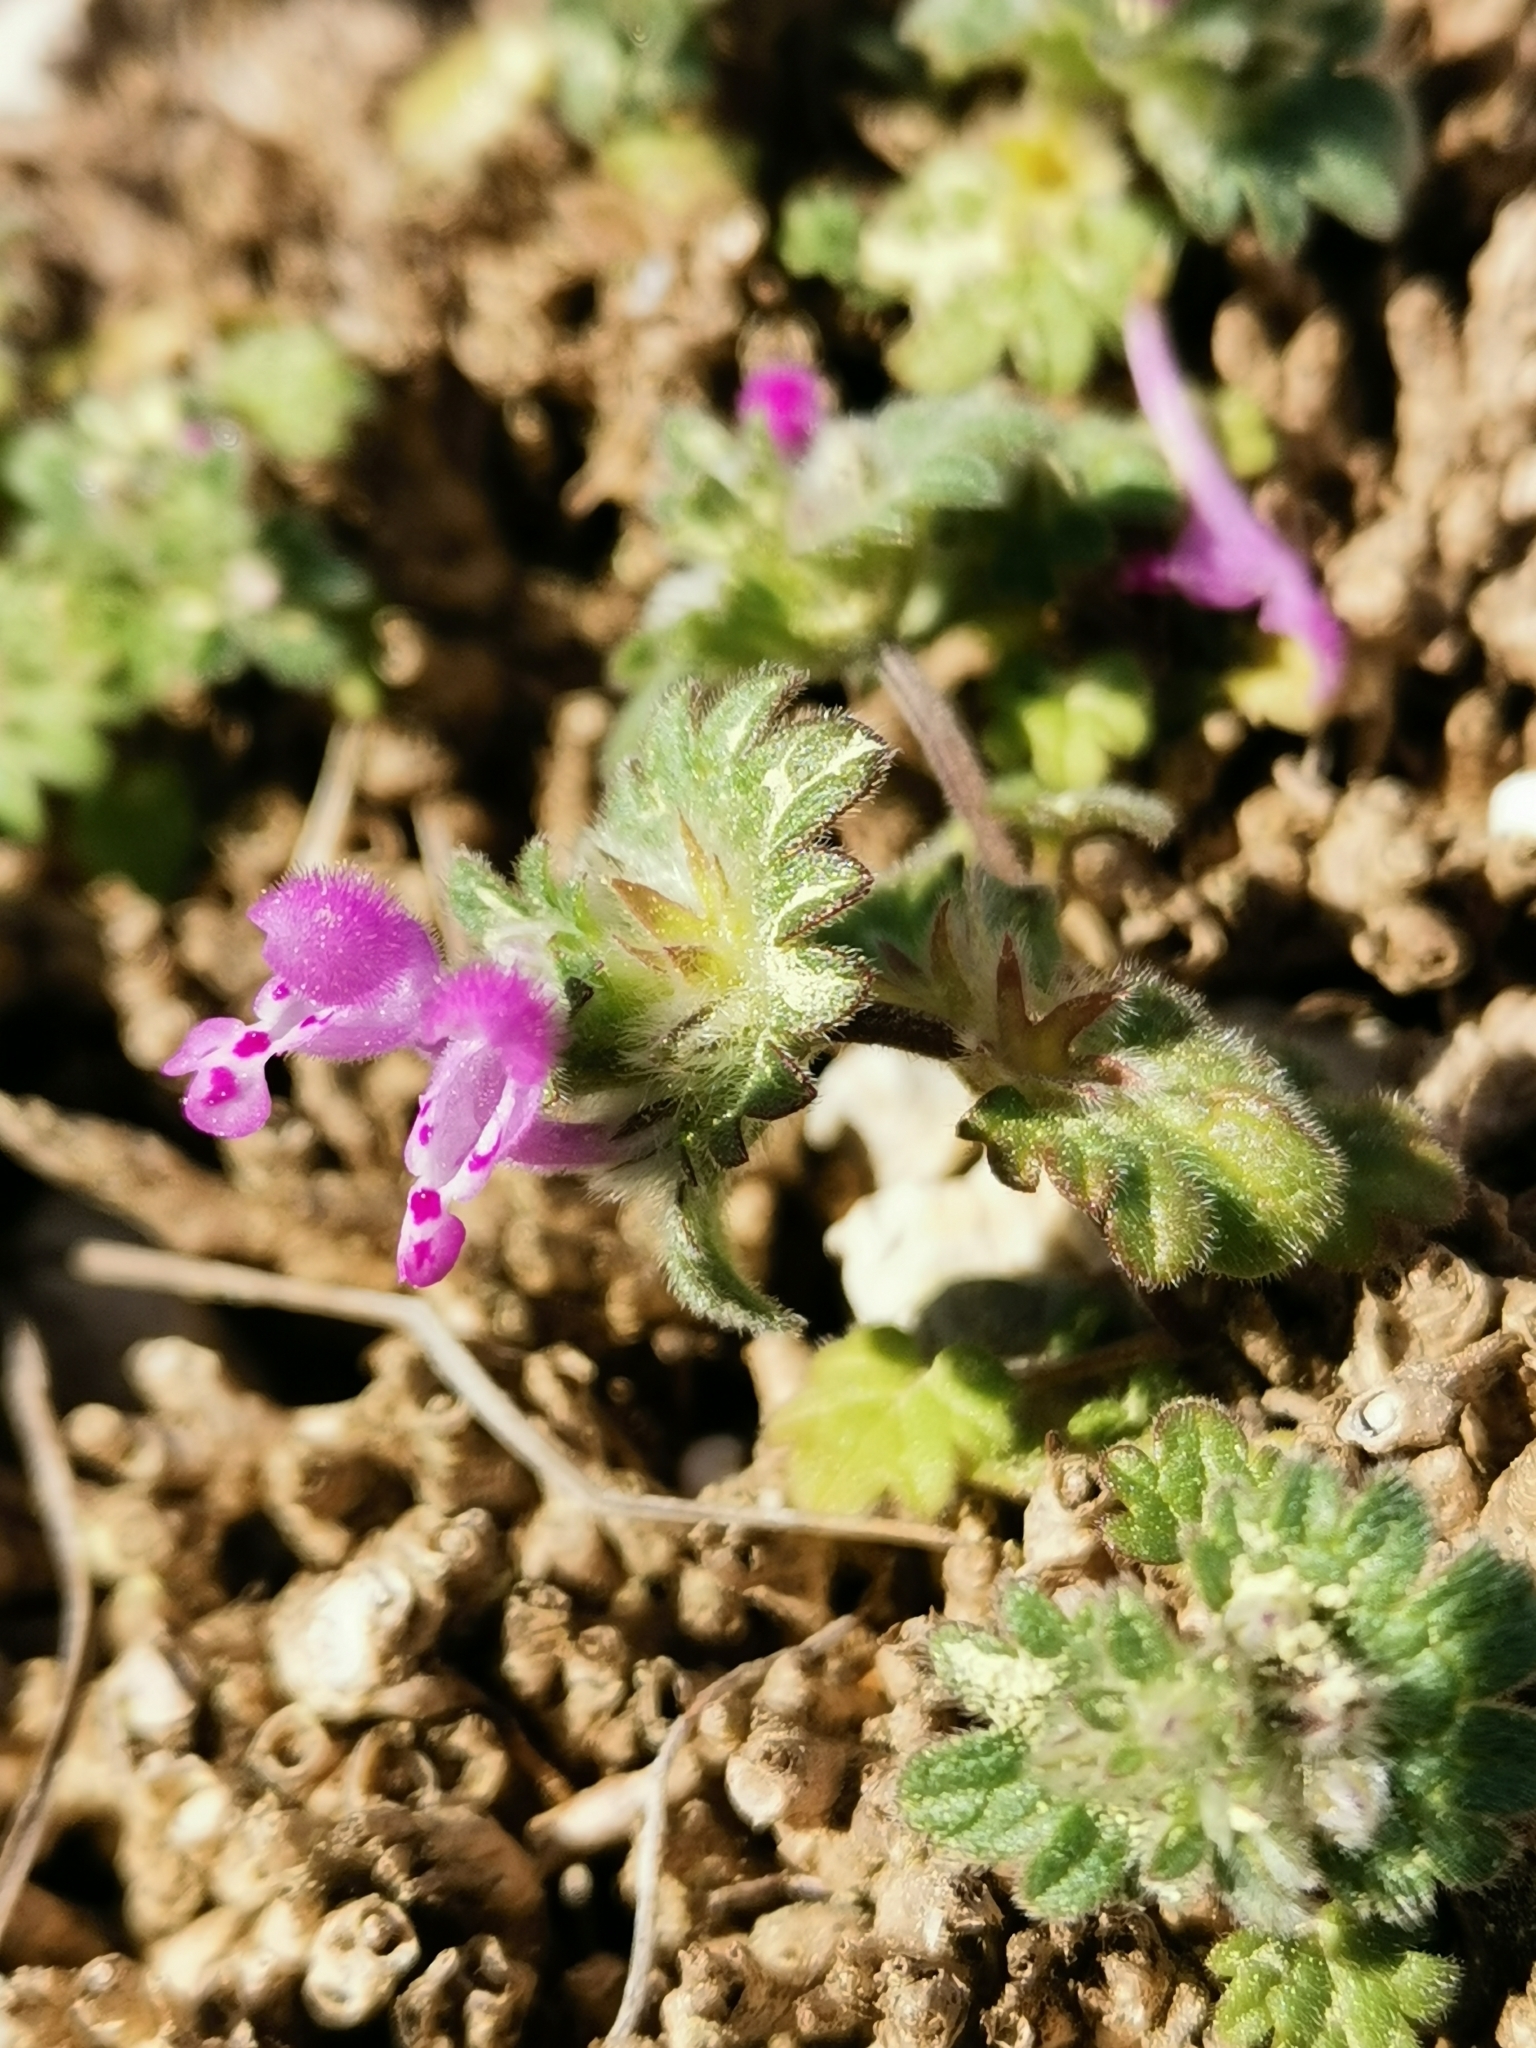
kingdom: Plantae
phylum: Tracheophyta
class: Magnoliopsida
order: Lamiales
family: Lamiaceae
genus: Lamium
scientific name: Lamium amplexicaule
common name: Henbit dead-nettle
